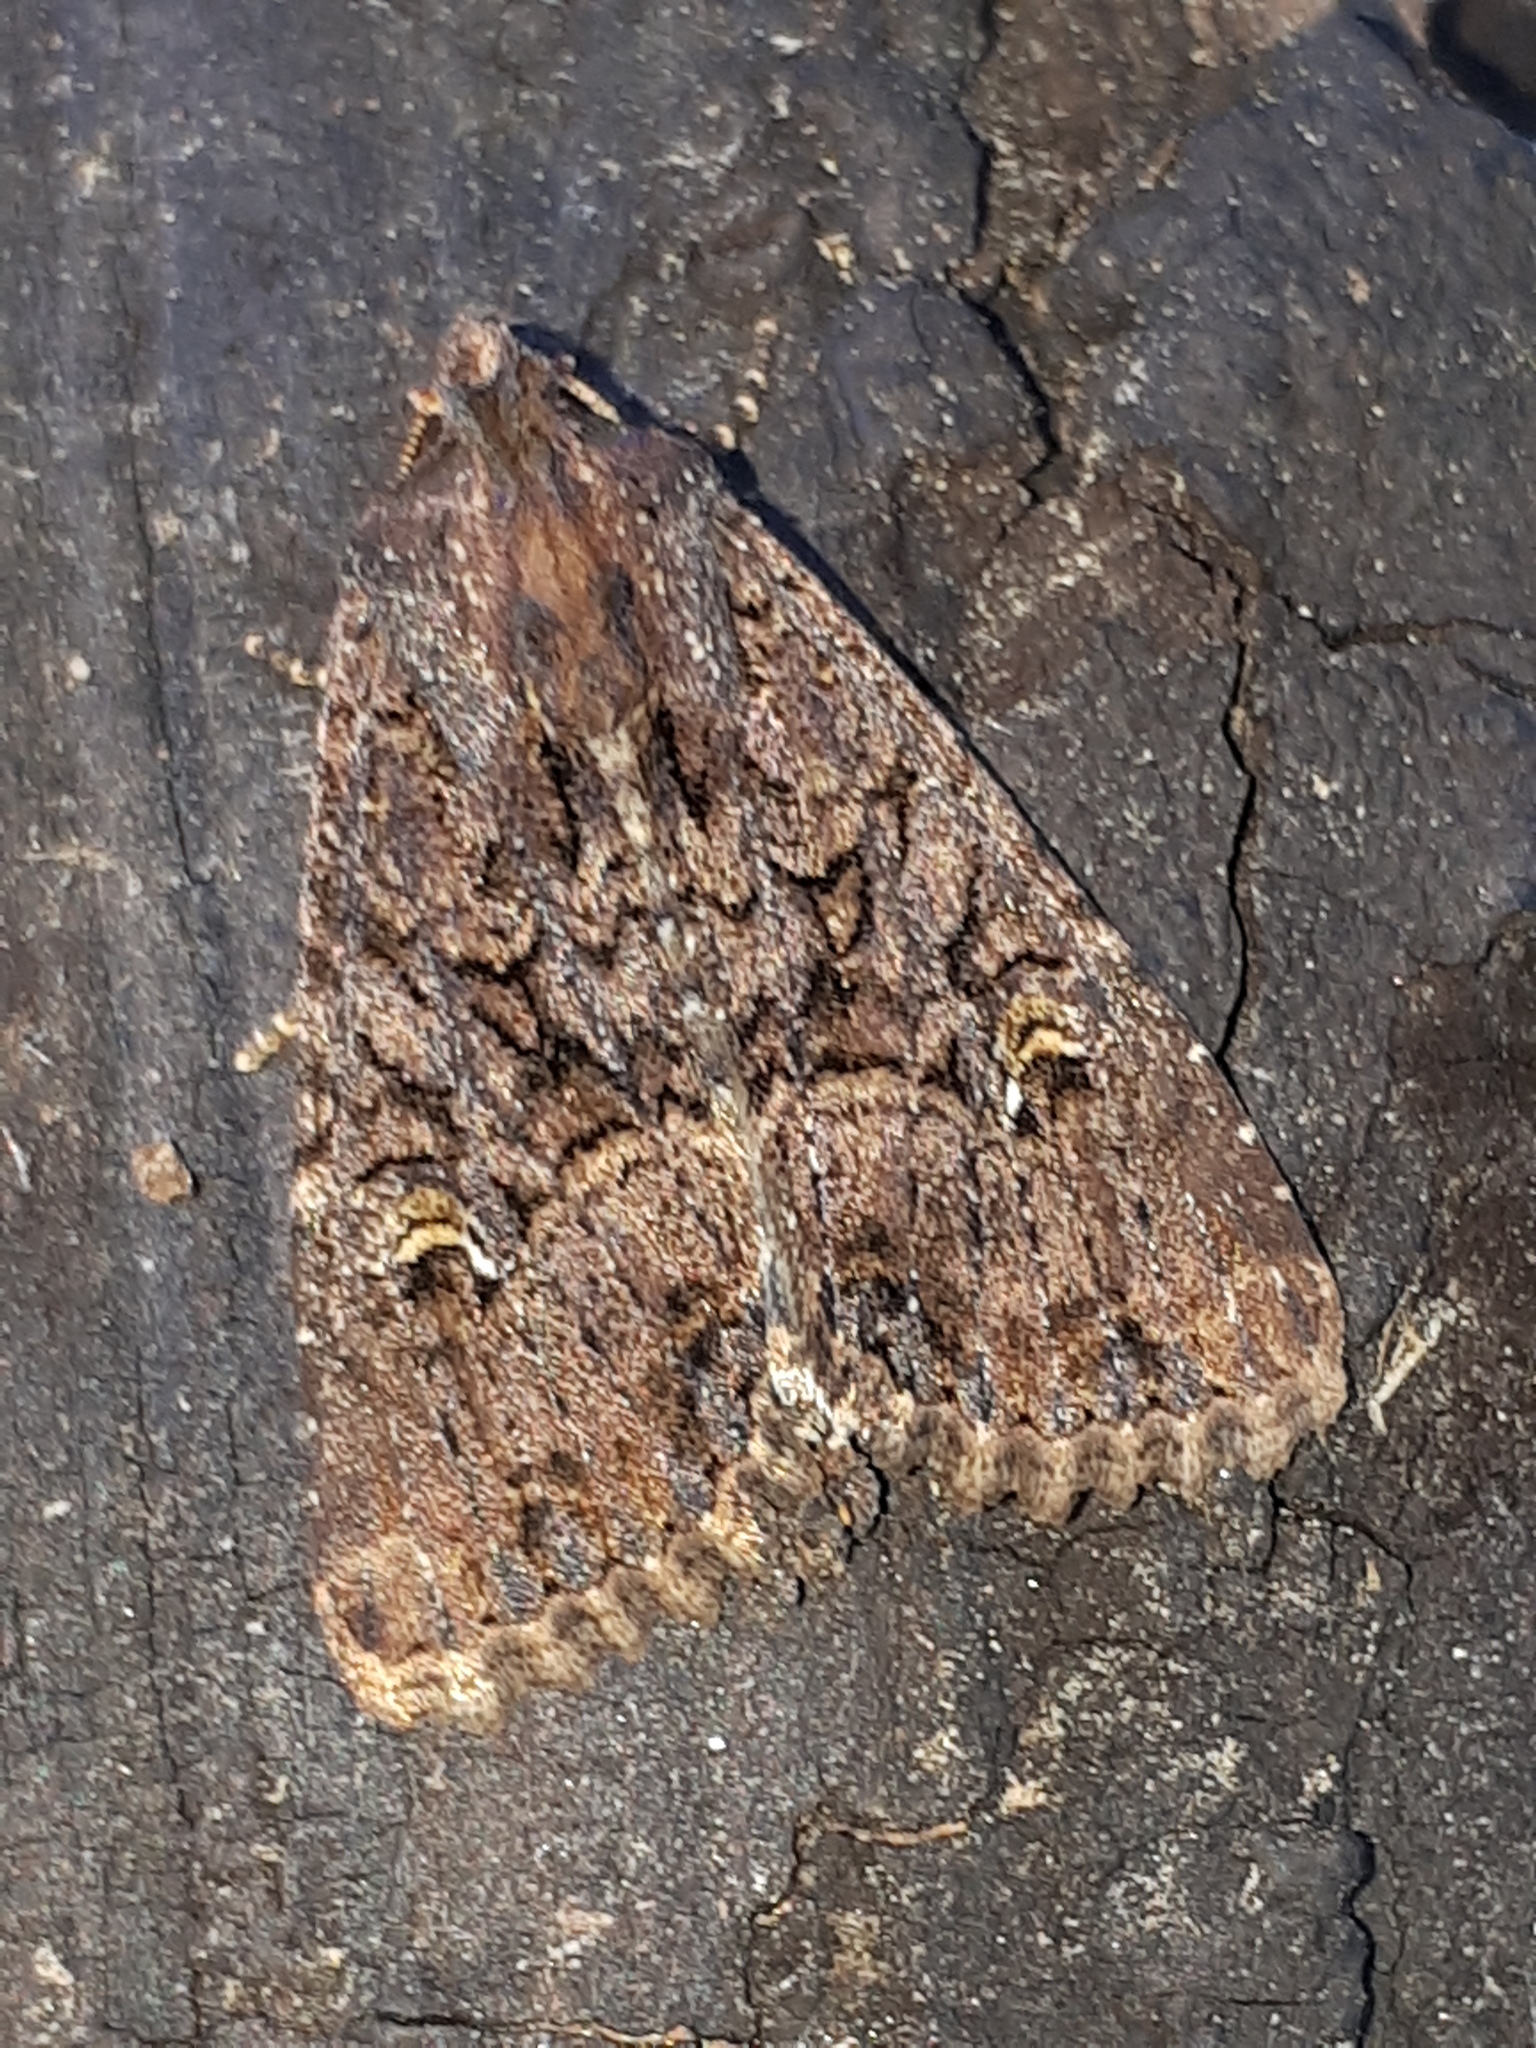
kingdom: Animalia
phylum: Arthropoda
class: Insecta
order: Lepidoptera
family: Noctuidae
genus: Mesapamea
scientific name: Mesapamea
